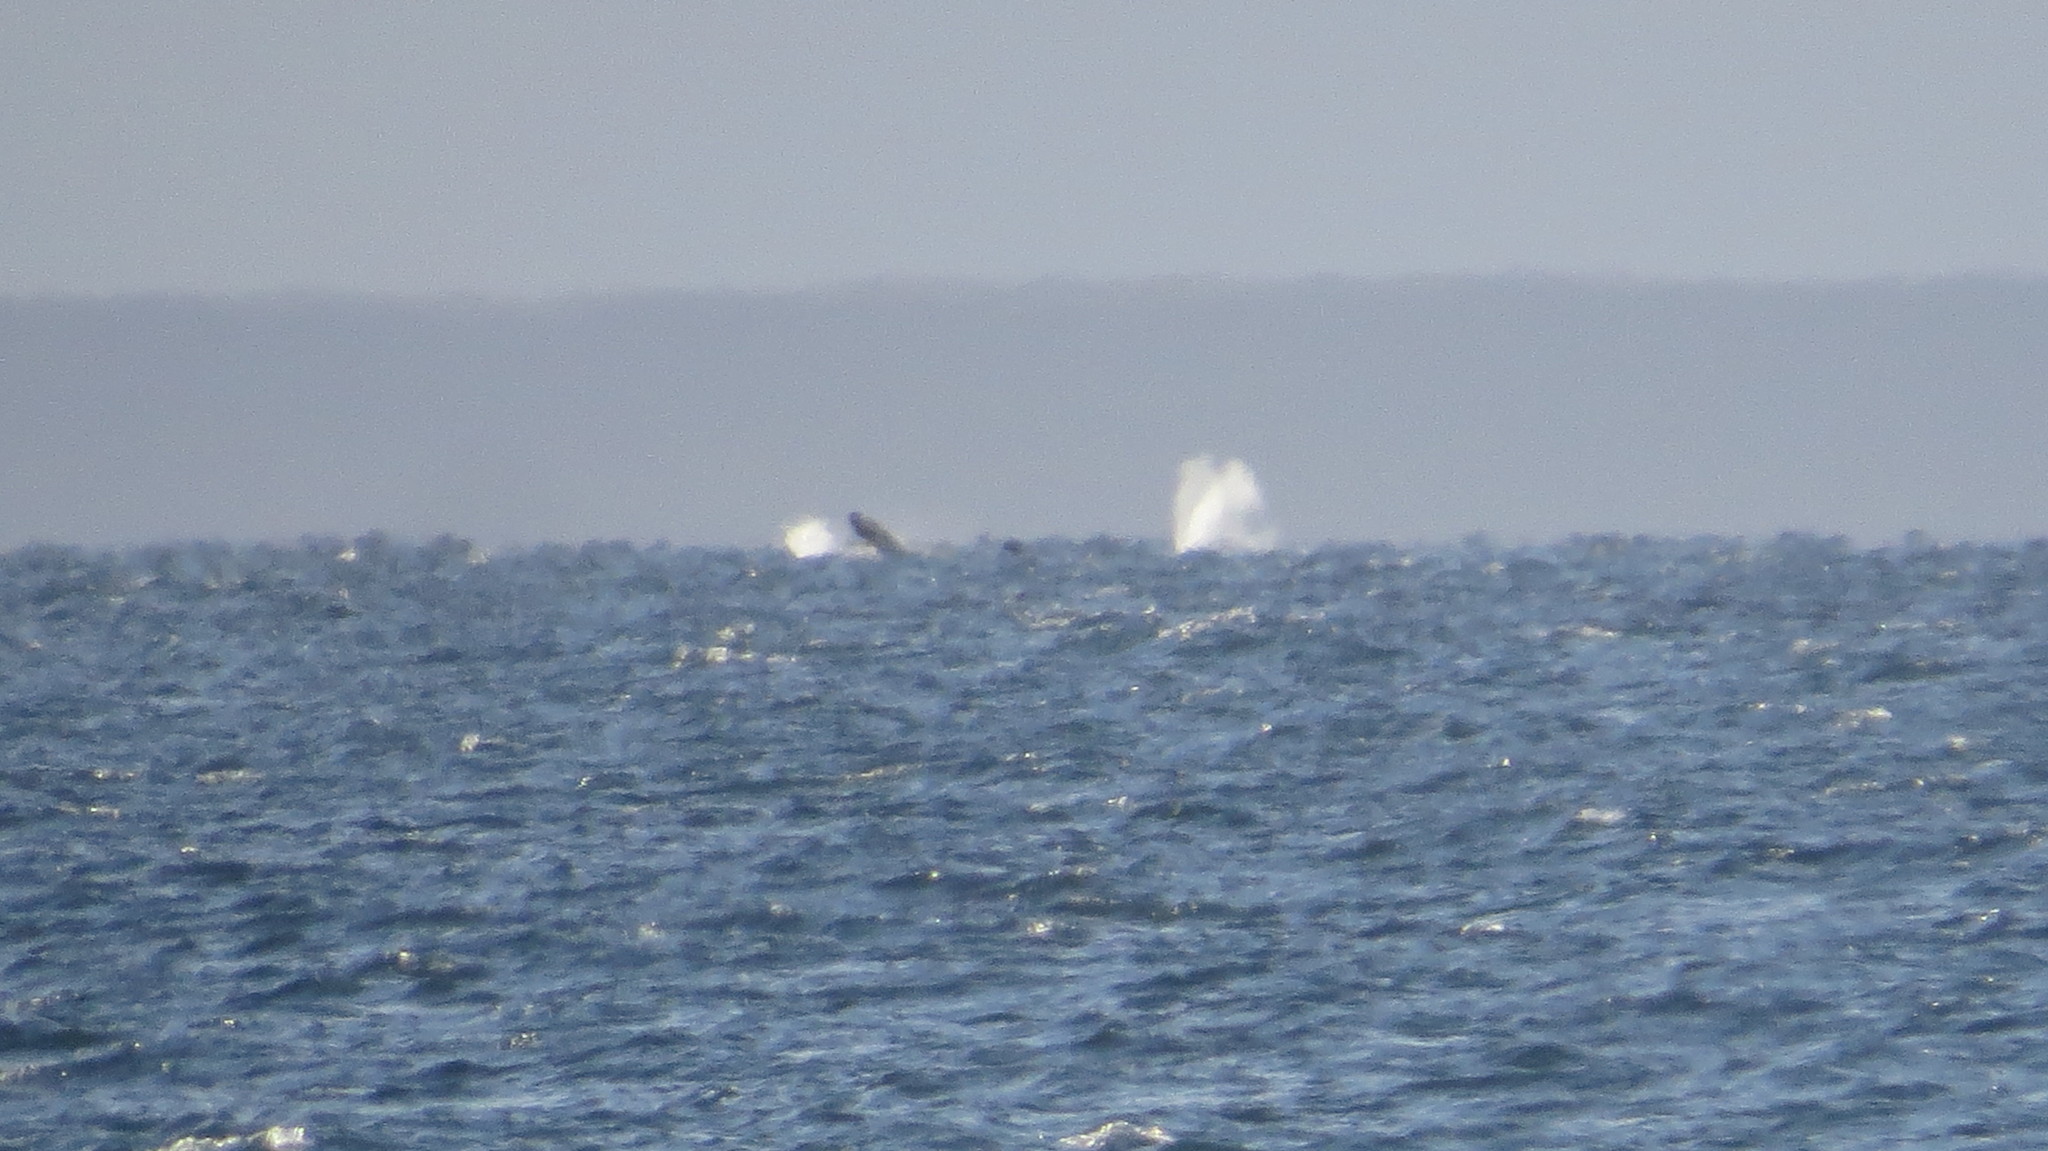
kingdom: Animalia
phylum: Chordata
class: Mammalia
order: Cetacea
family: Balaenidae
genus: Eubalaena
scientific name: Eubalaena australis
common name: Southern right whale
